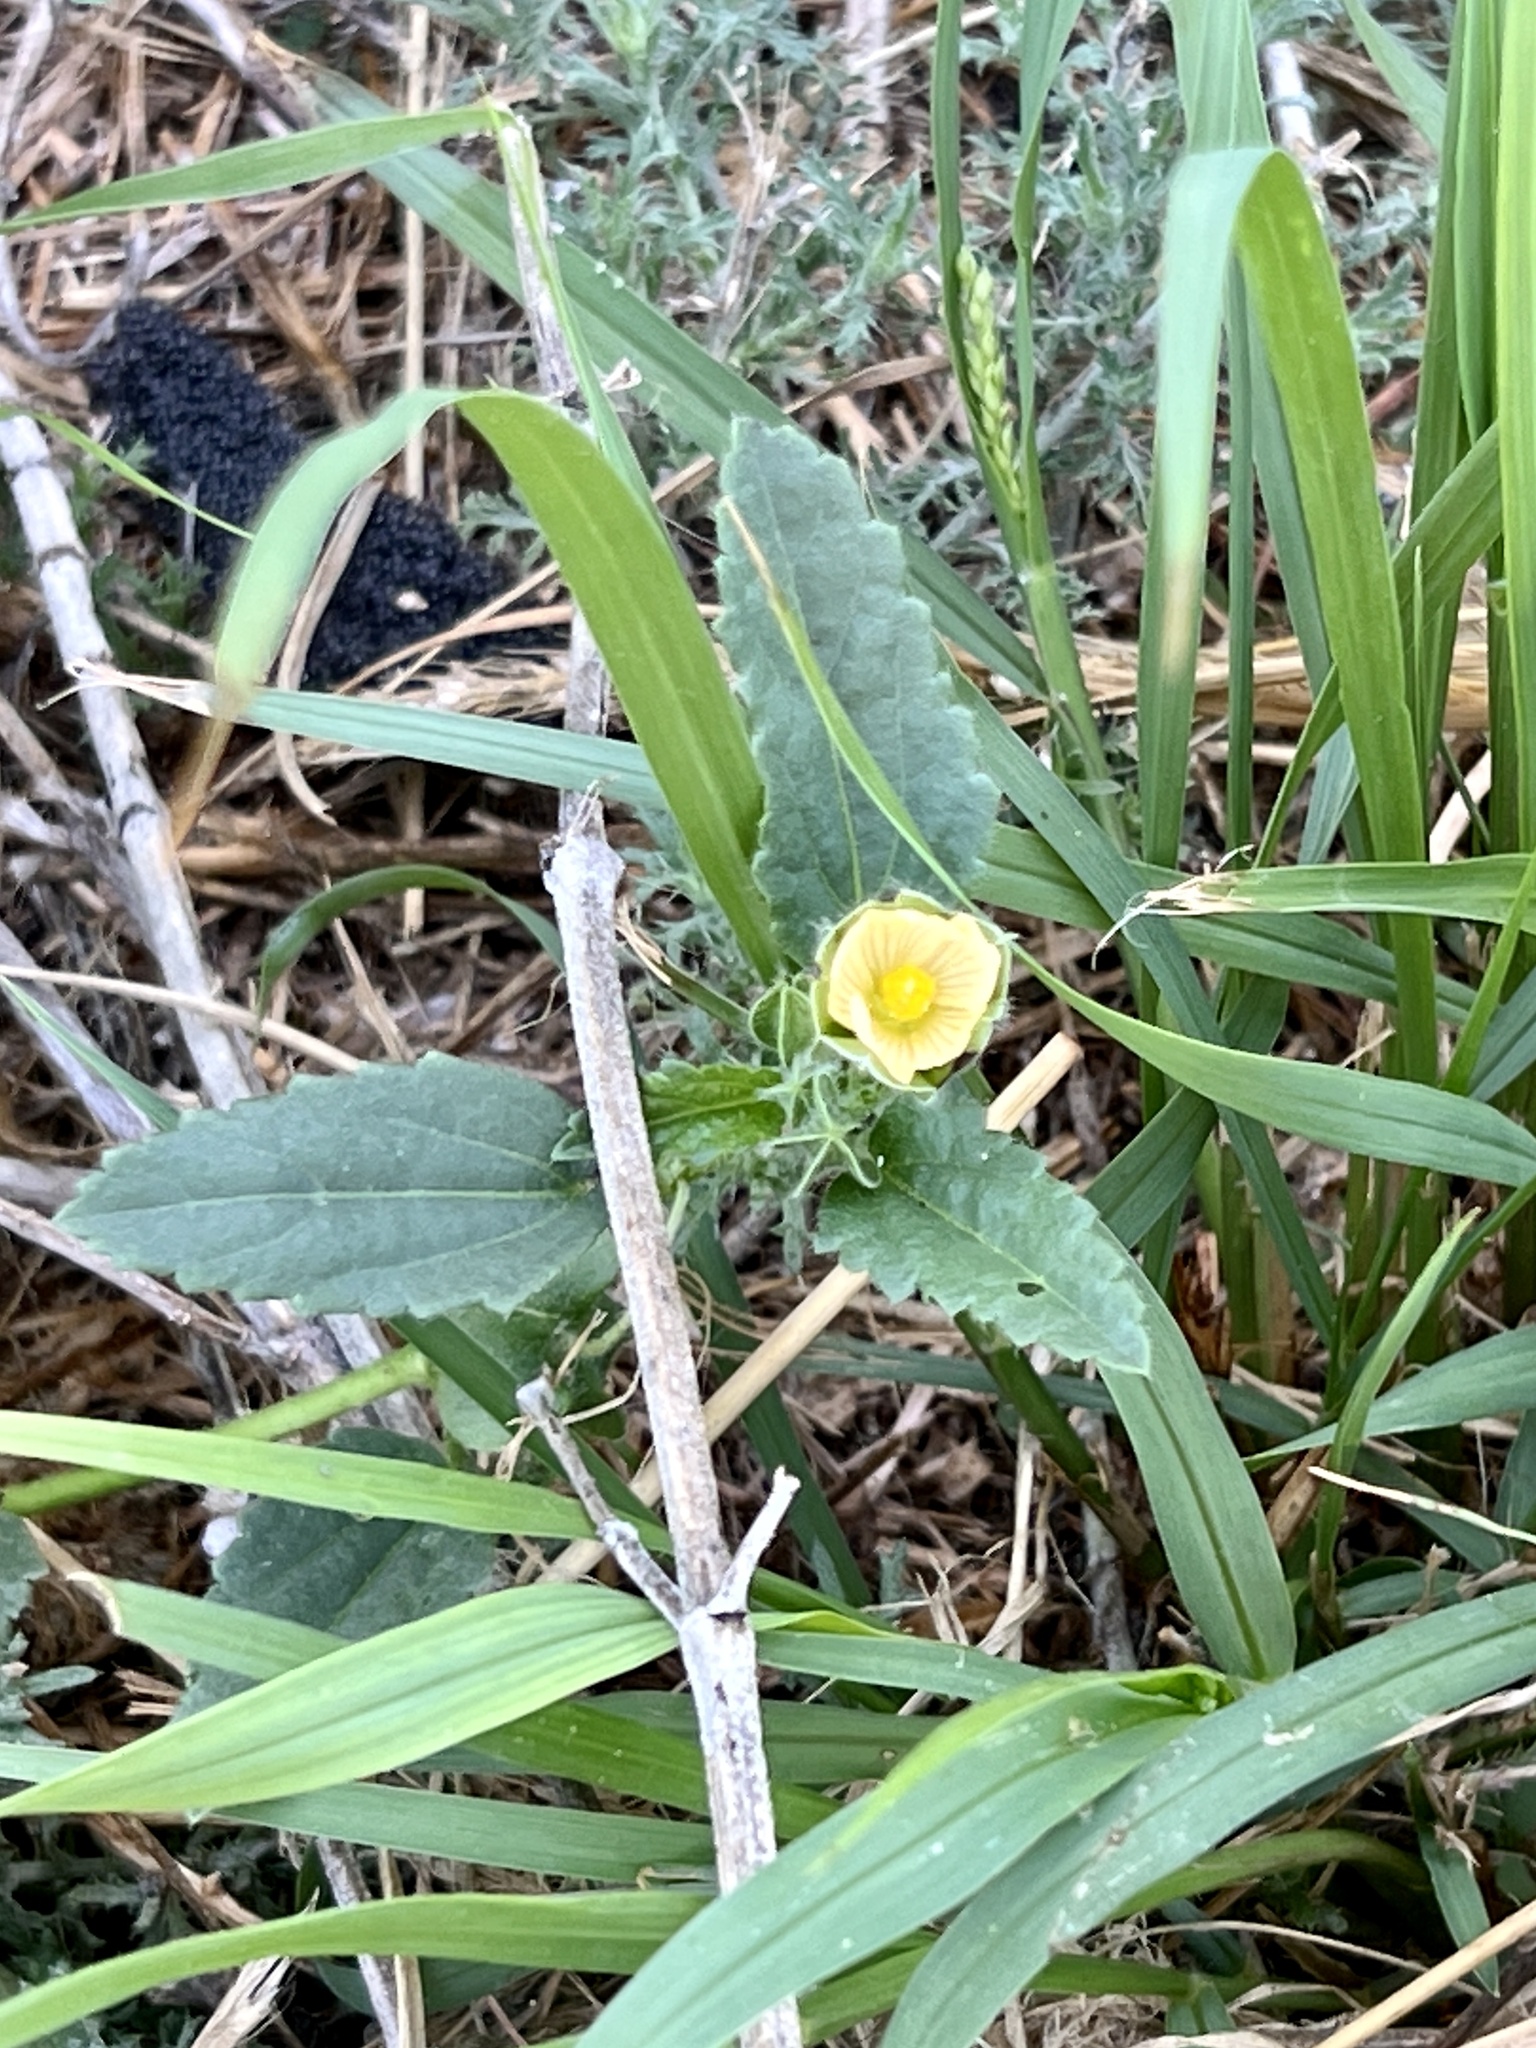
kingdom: Plantae
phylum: Tracheophyta
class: Magnoliopsida
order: Malvales
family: Malvaceae
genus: Rhynchosida
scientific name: Rhynchosida physocalyx
